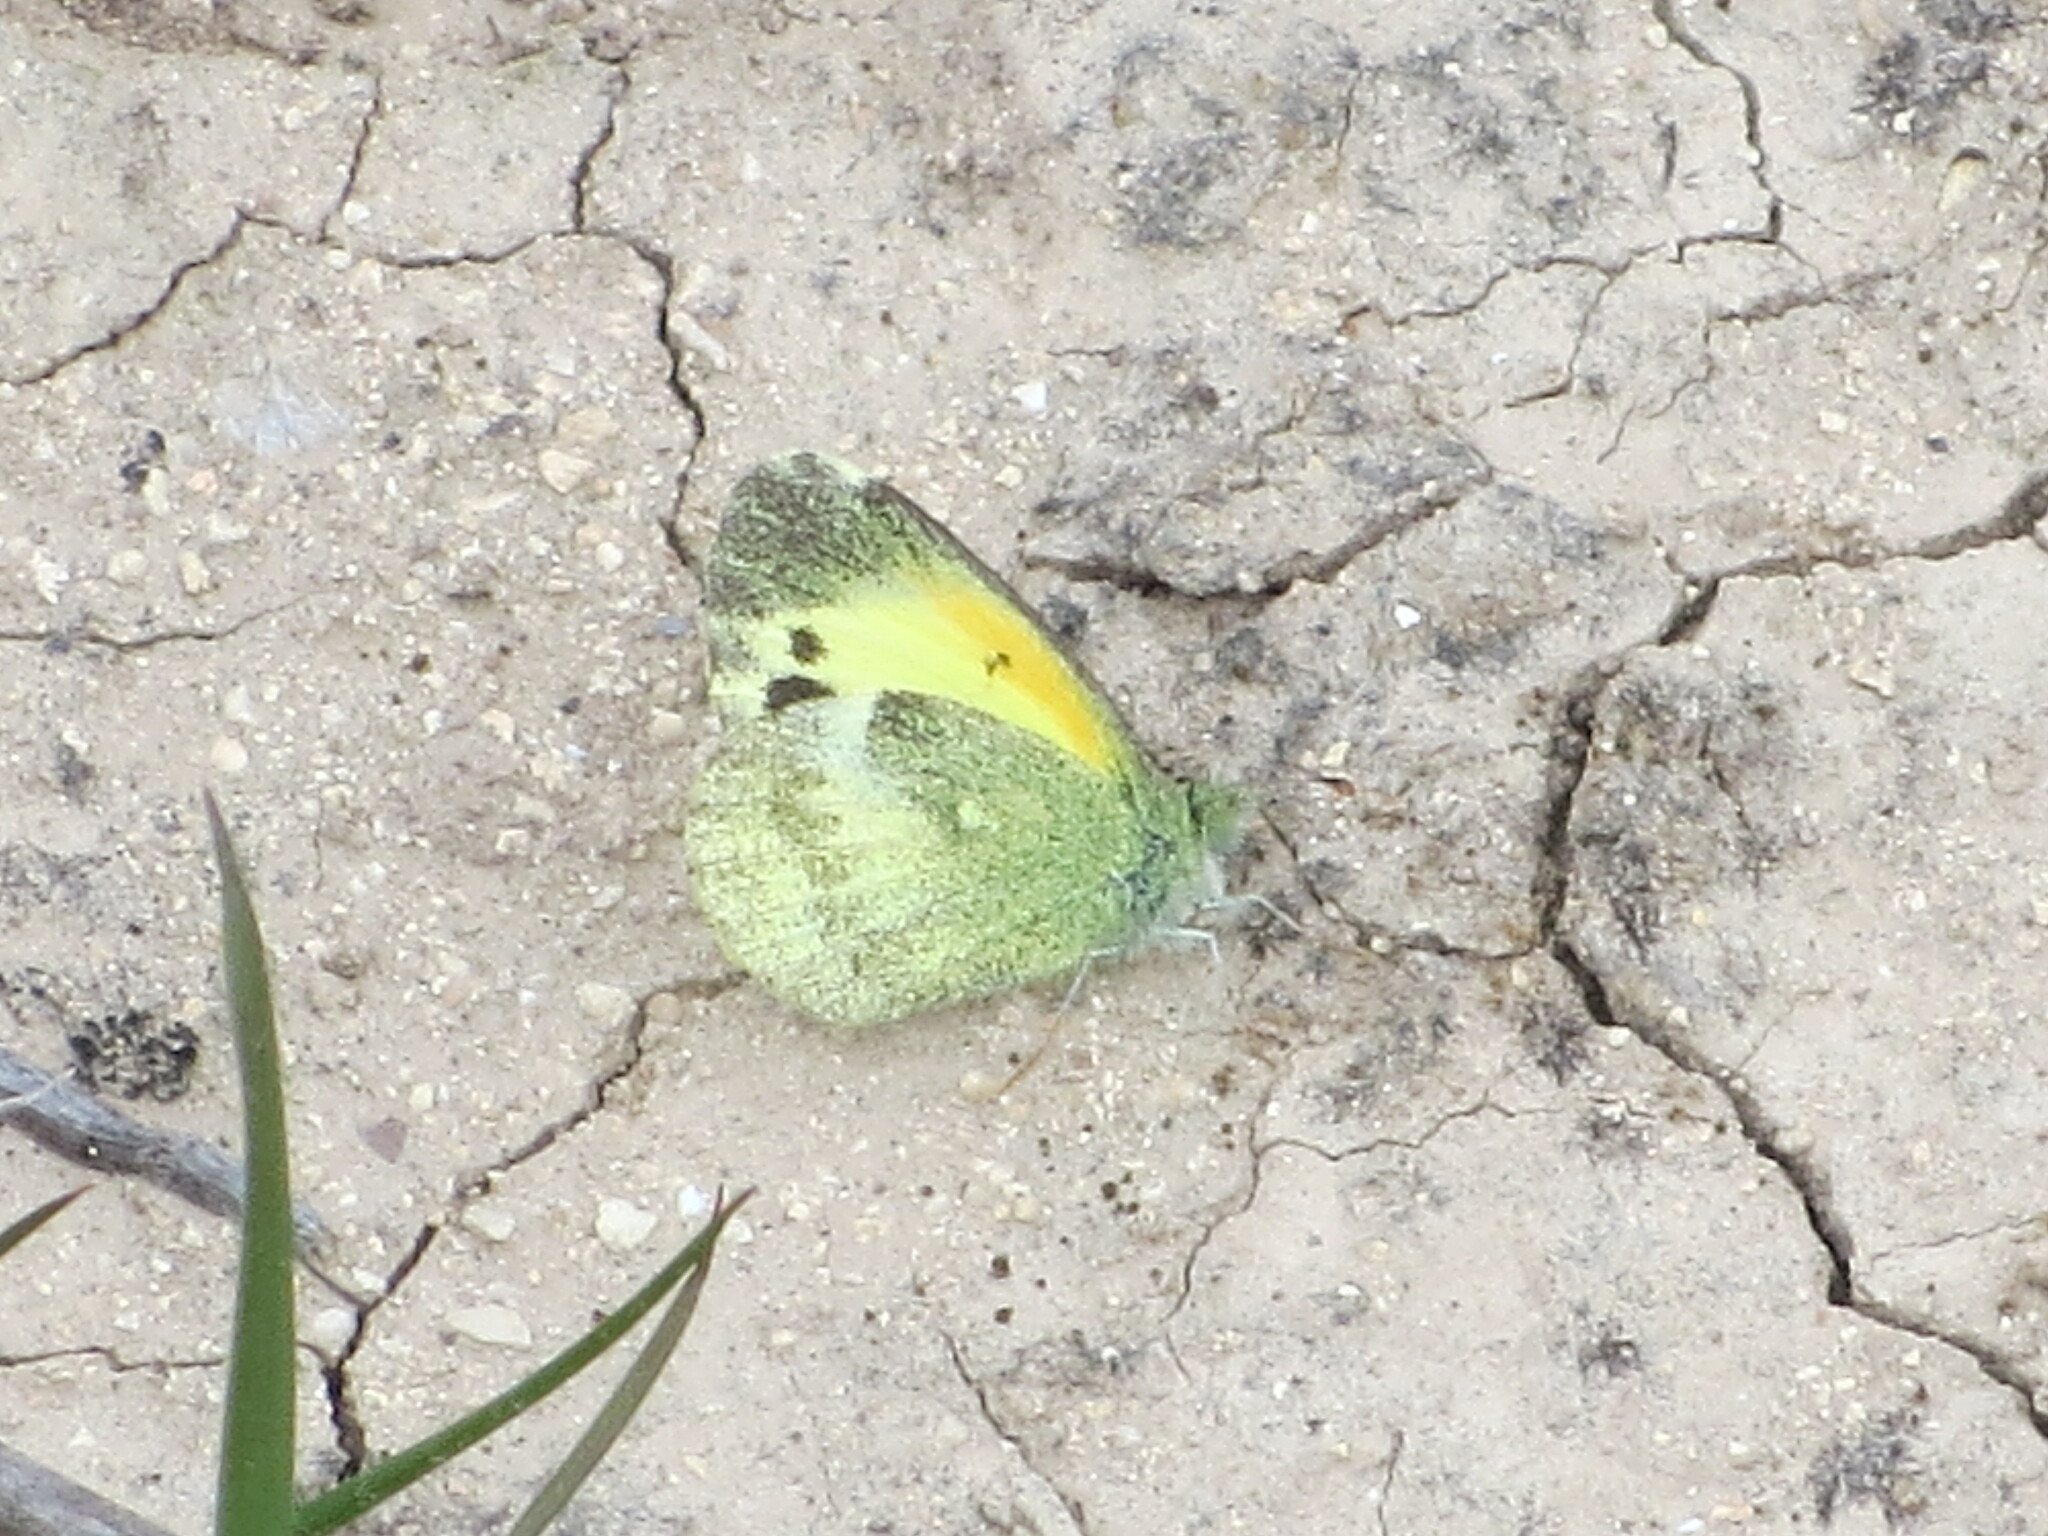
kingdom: Animalia
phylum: Arthropoda
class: Insecta
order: Lepidoptera
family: Pieridae
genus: Nathalis
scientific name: Nathalis iole
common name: Dainty sulphur
